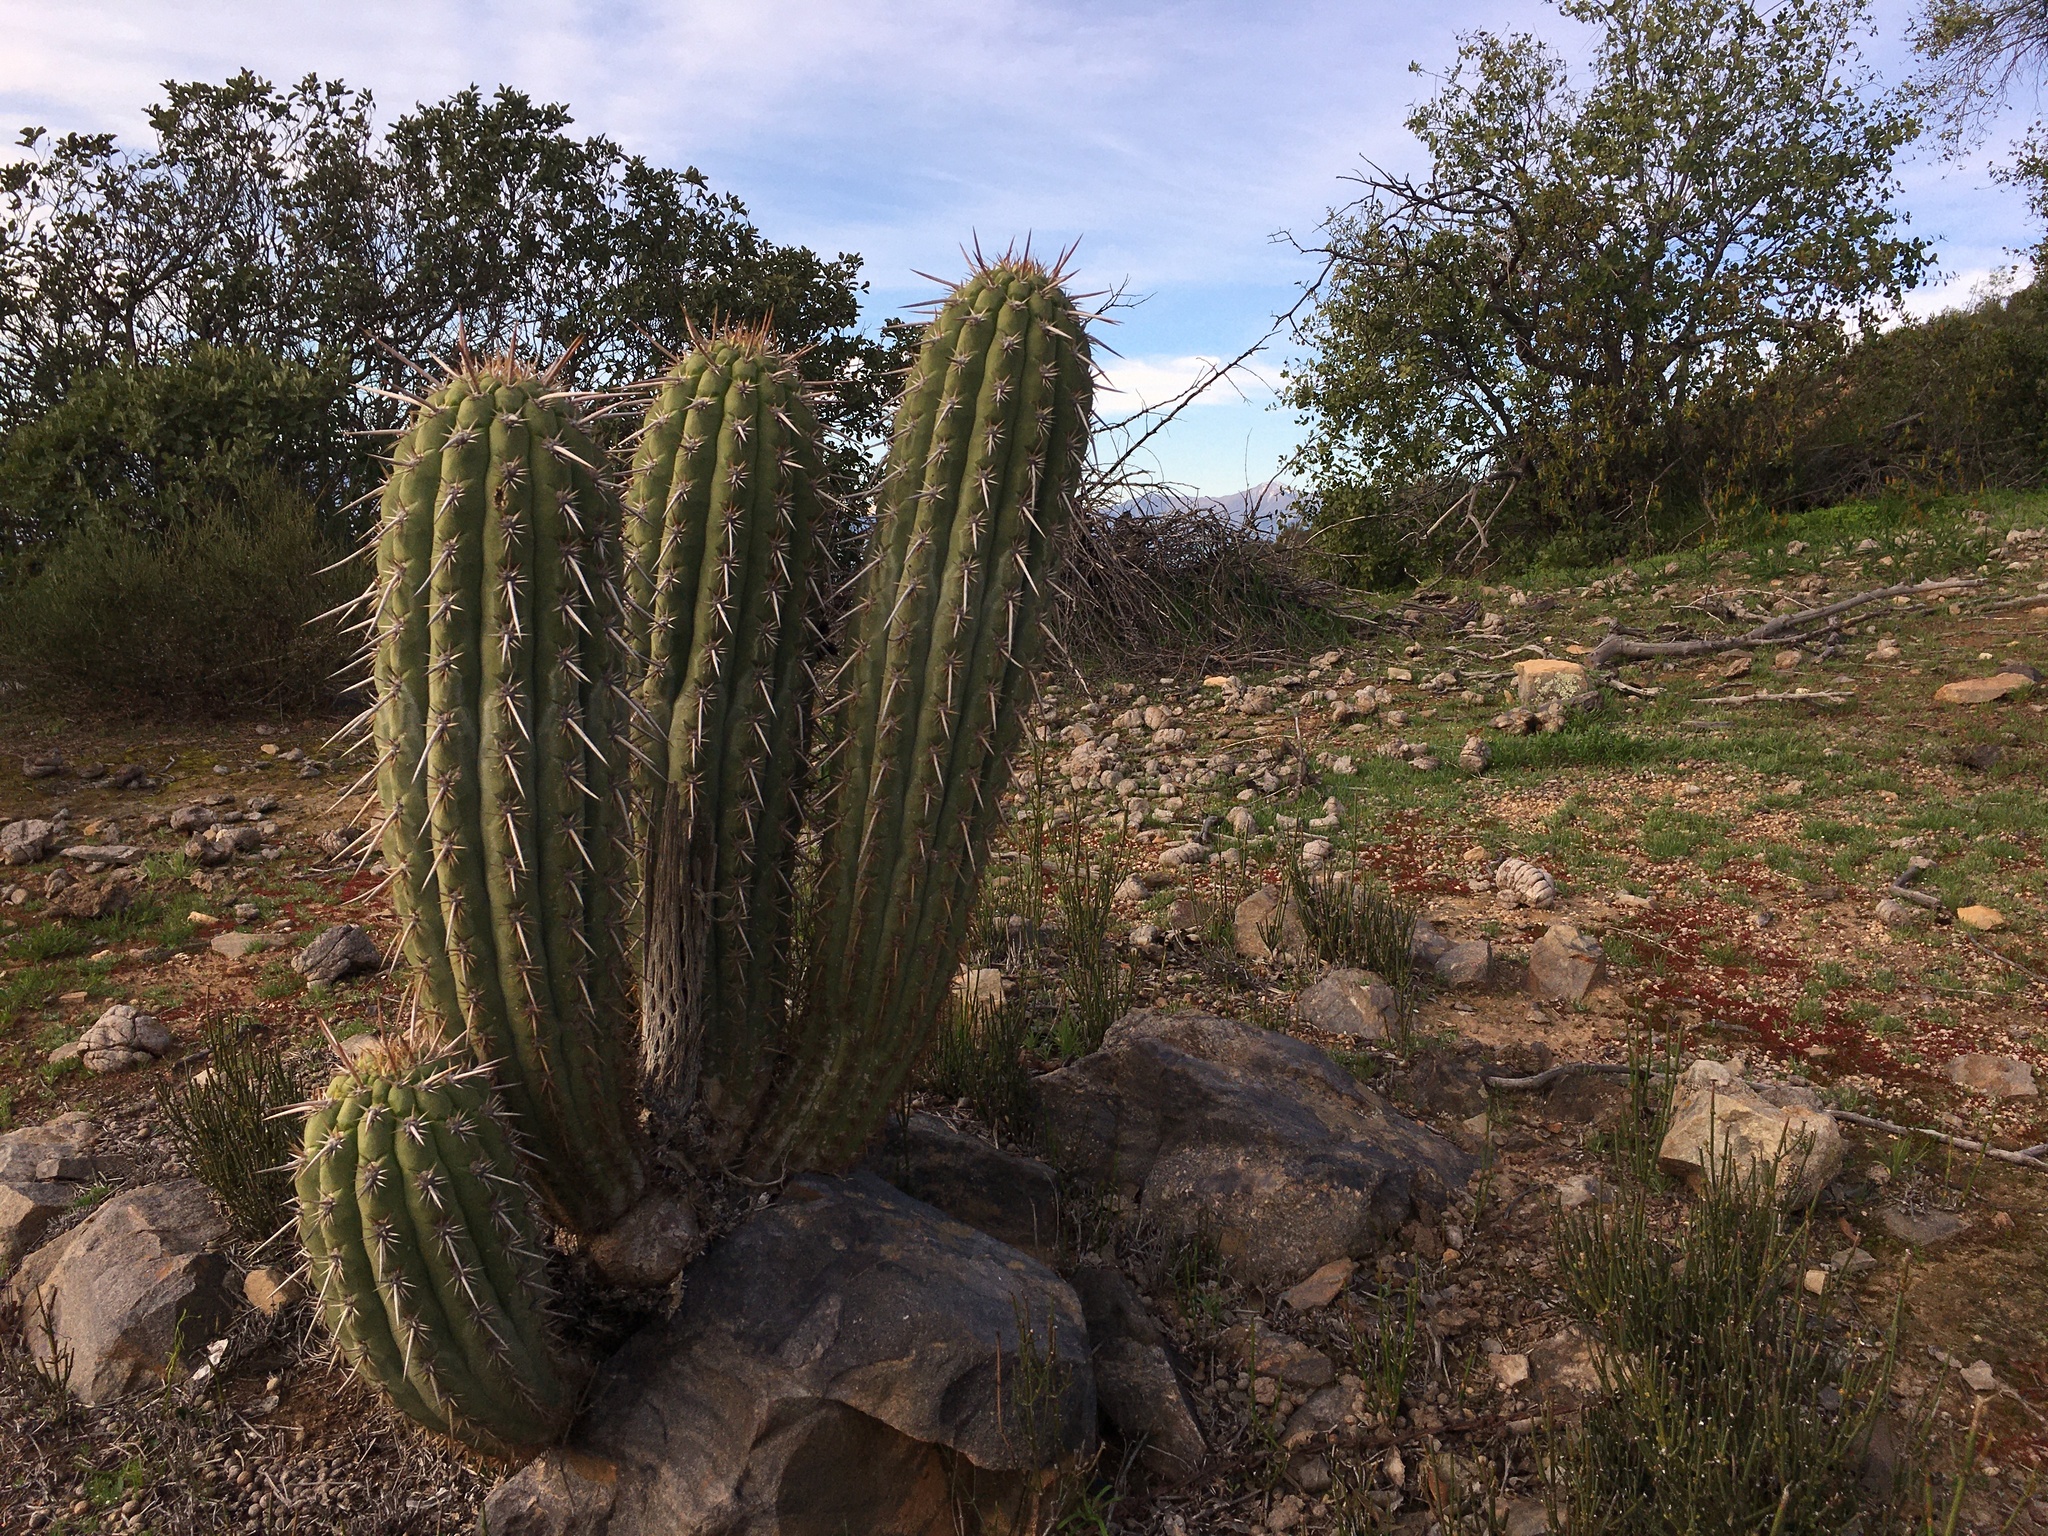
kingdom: Plantae
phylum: Tracheophyta
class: Magnoliopsida
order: Caryophyllales
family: Cactaceae
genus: Leucostele
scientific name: Leucostele chiloensis
